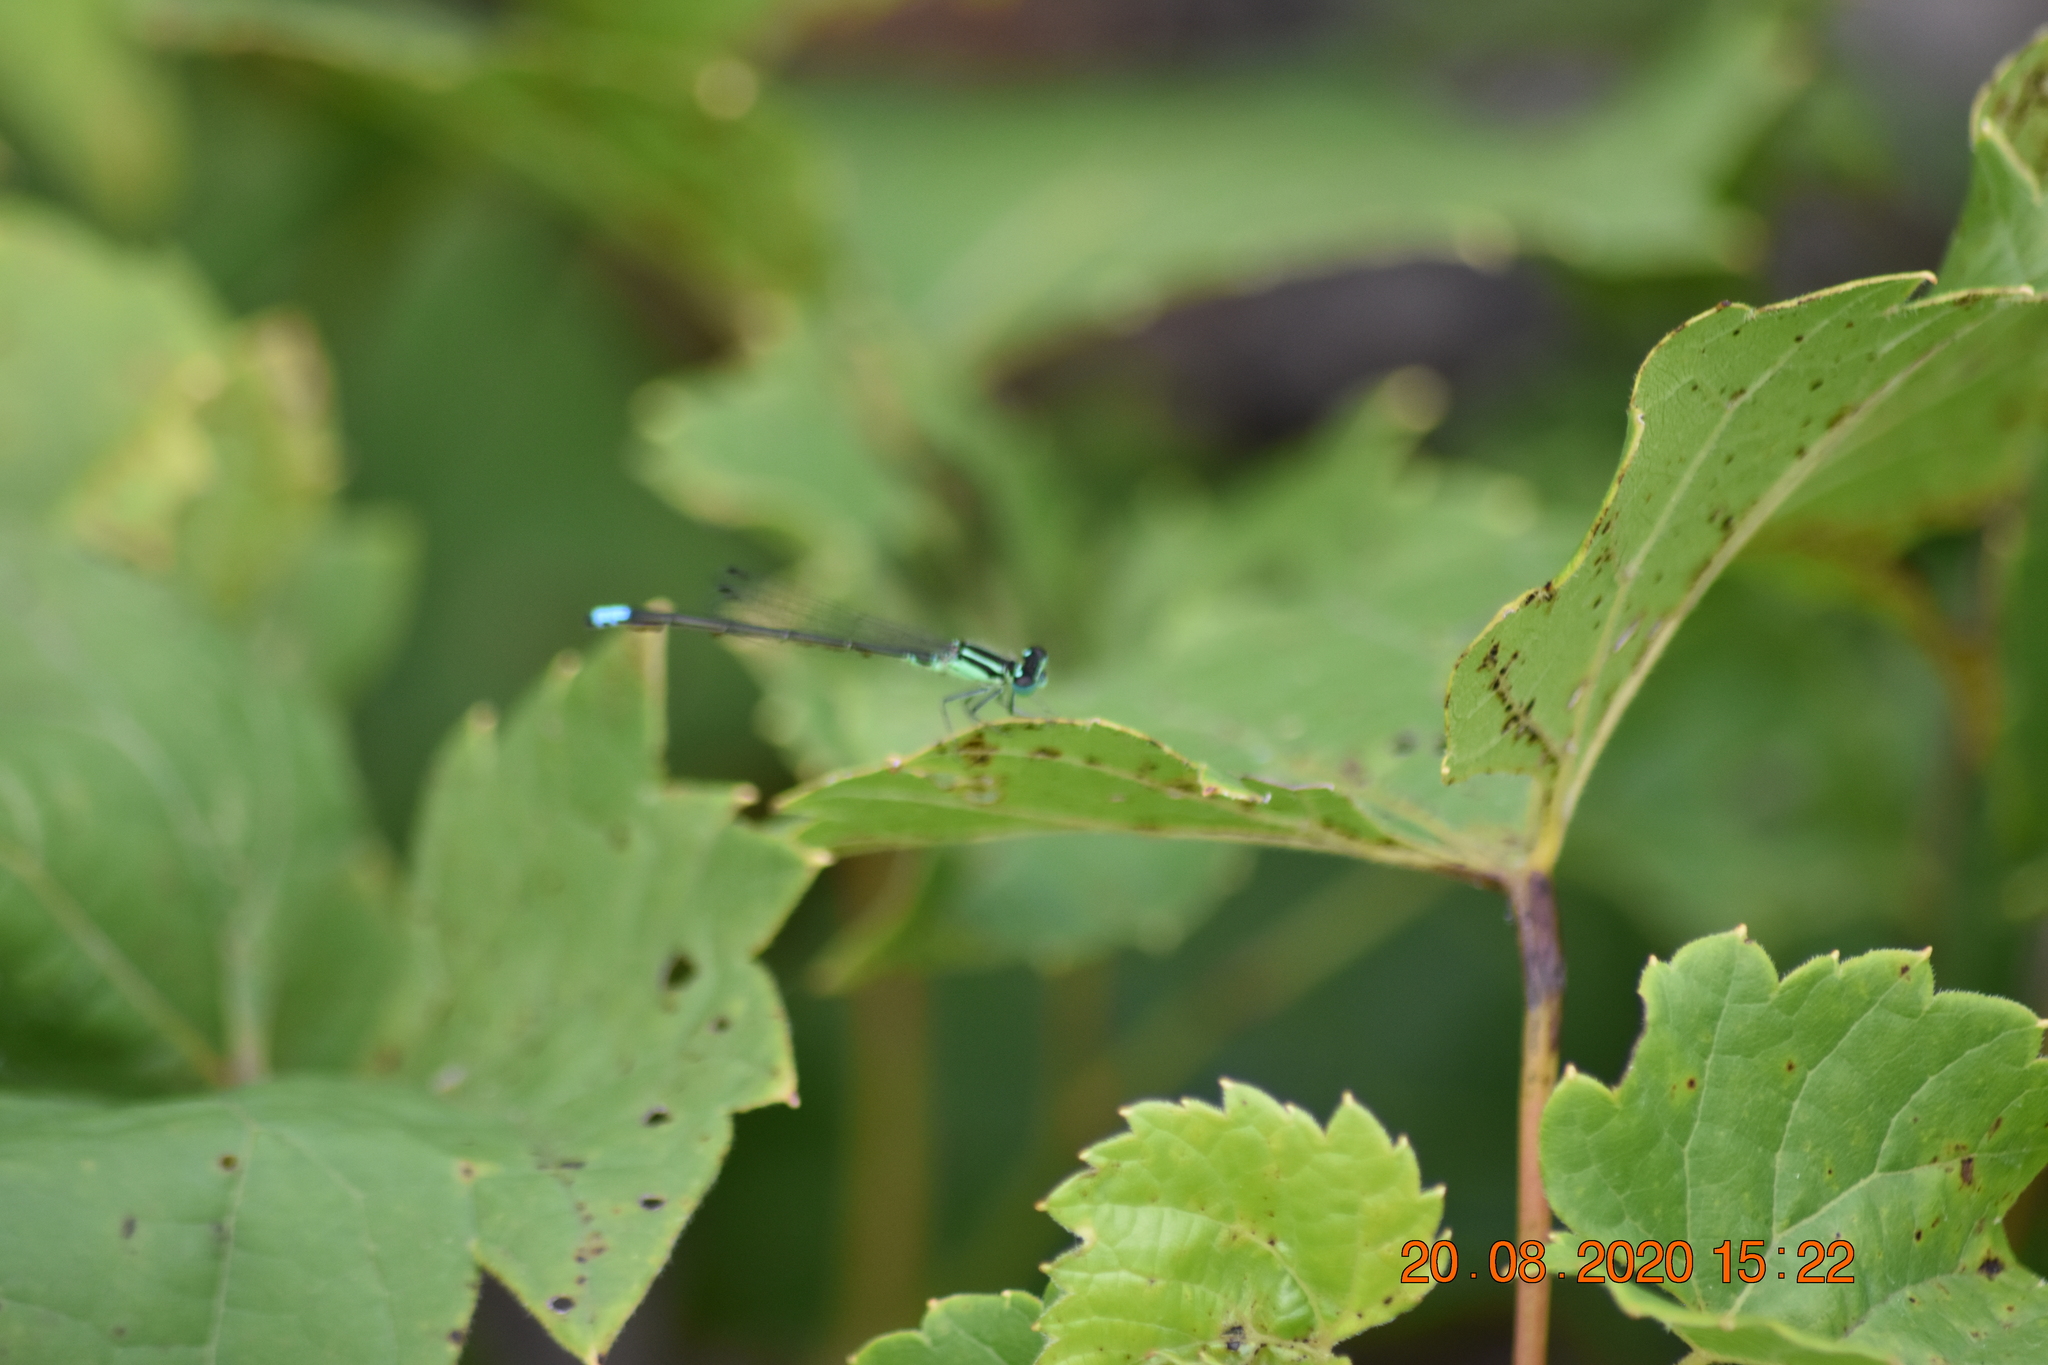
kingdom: Animalia
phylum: Arthropoda
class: Insecta
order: Odonata
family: Coenagrionidae
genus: Ischnura
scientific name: Ischnura verticalis
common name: Eastern forktail
